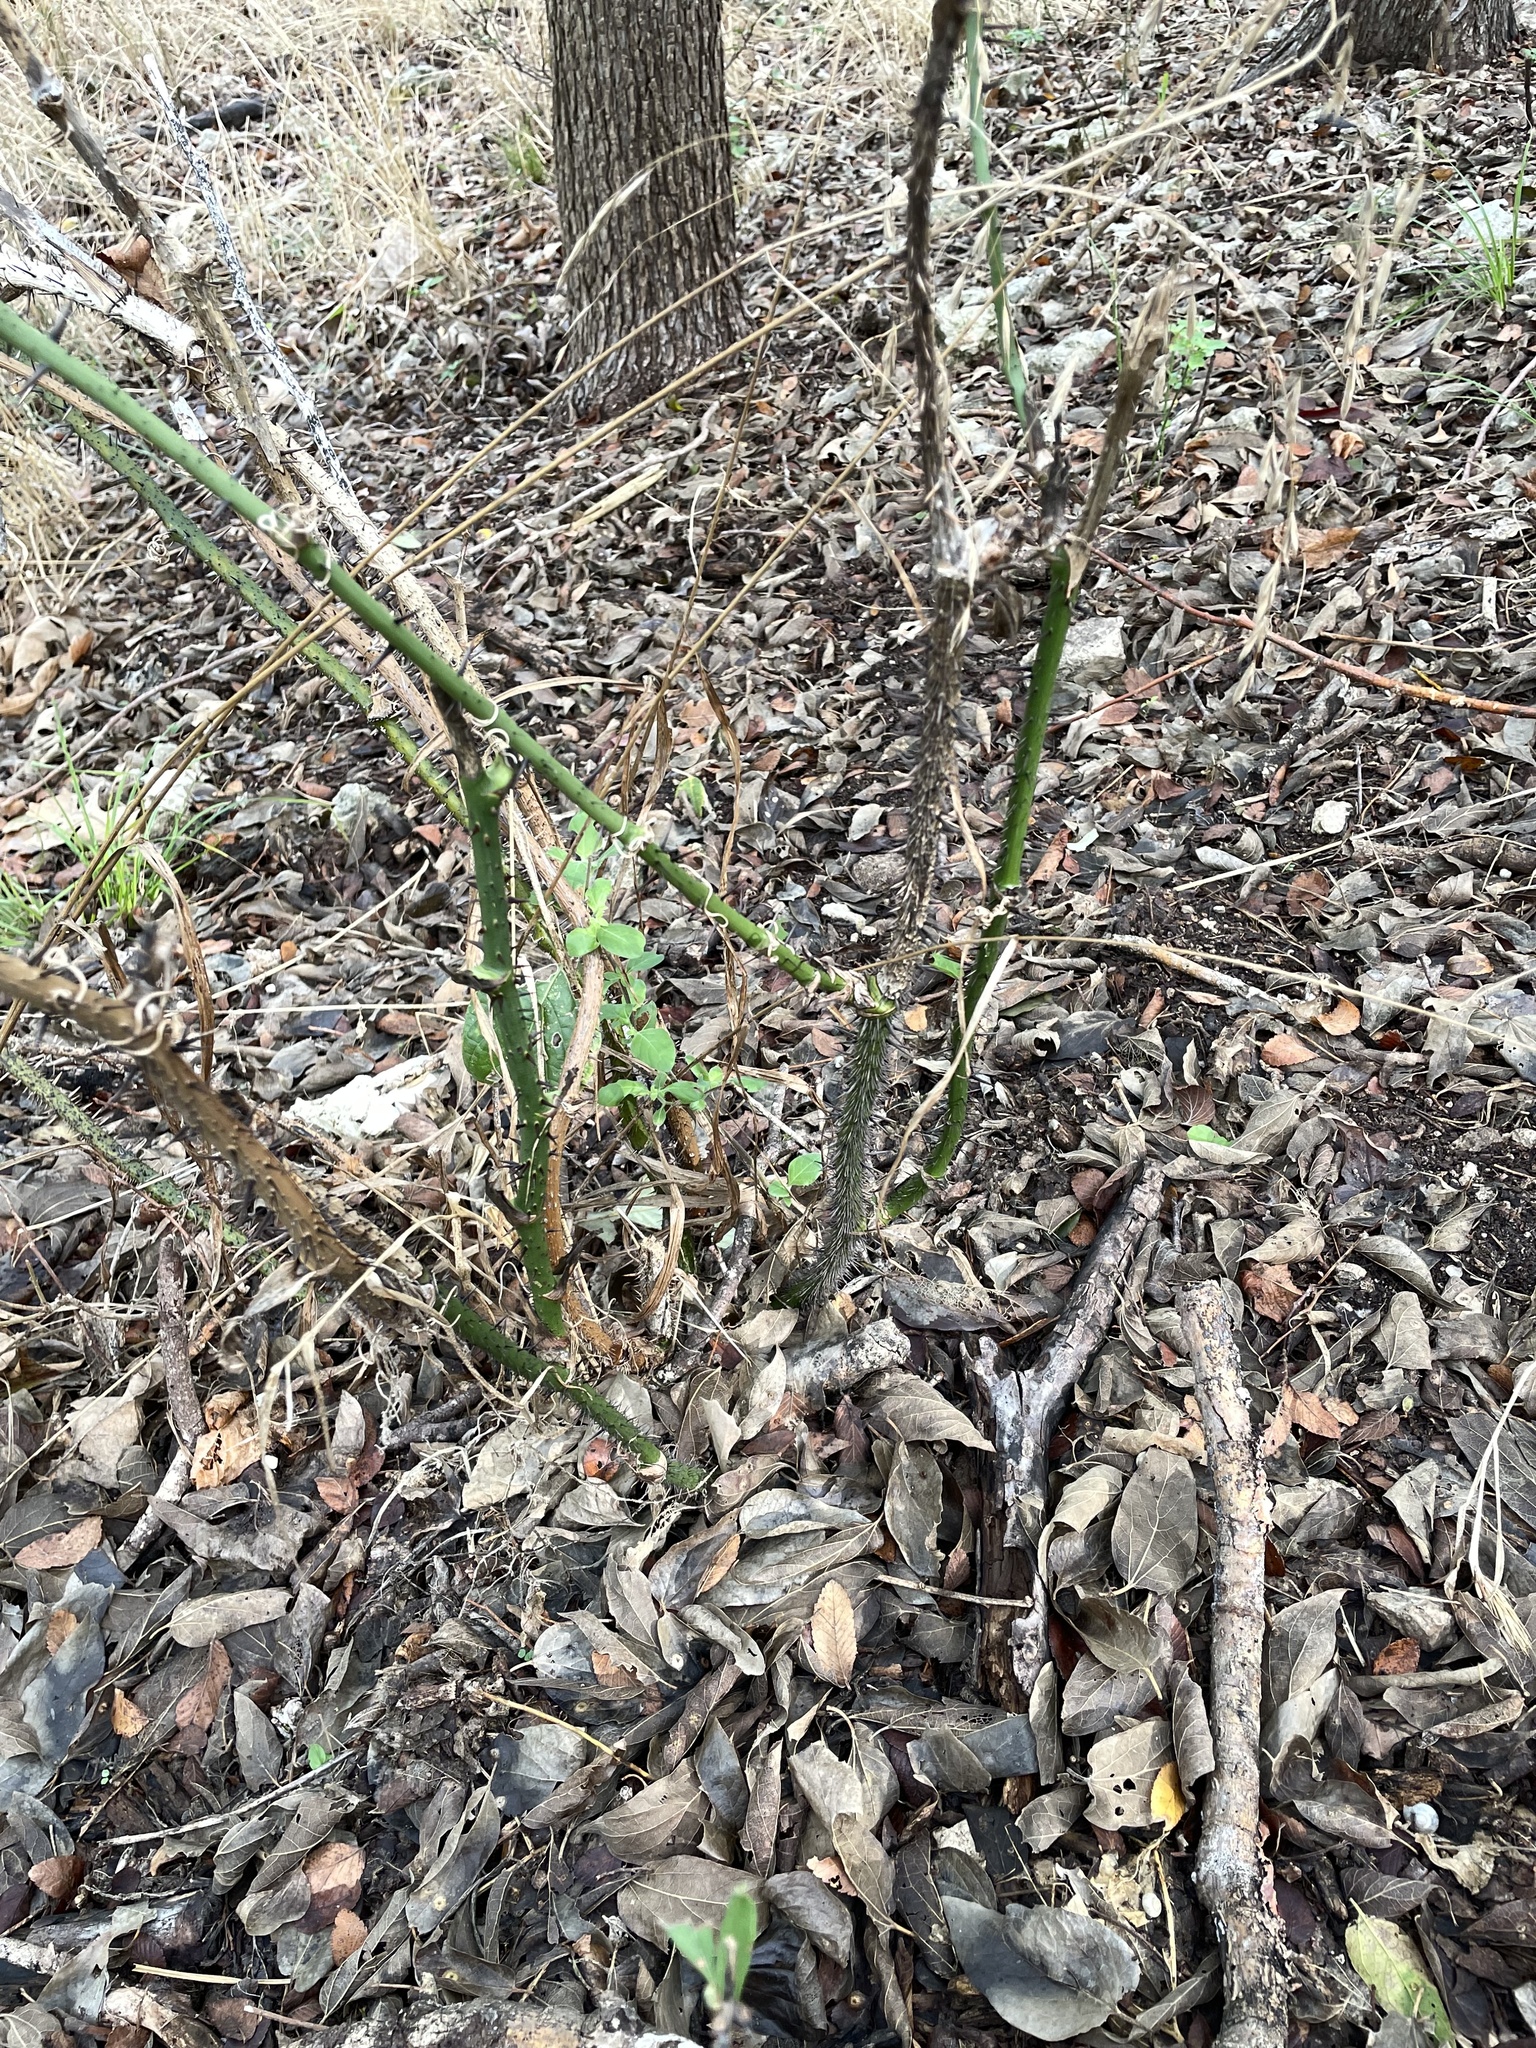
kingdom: Plantae
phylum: Tracheophyta
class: Liliopsida
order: Liliales
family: Smilacaceae
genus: Smilax
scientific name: Smilax tamnoides
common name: Hellfetter
